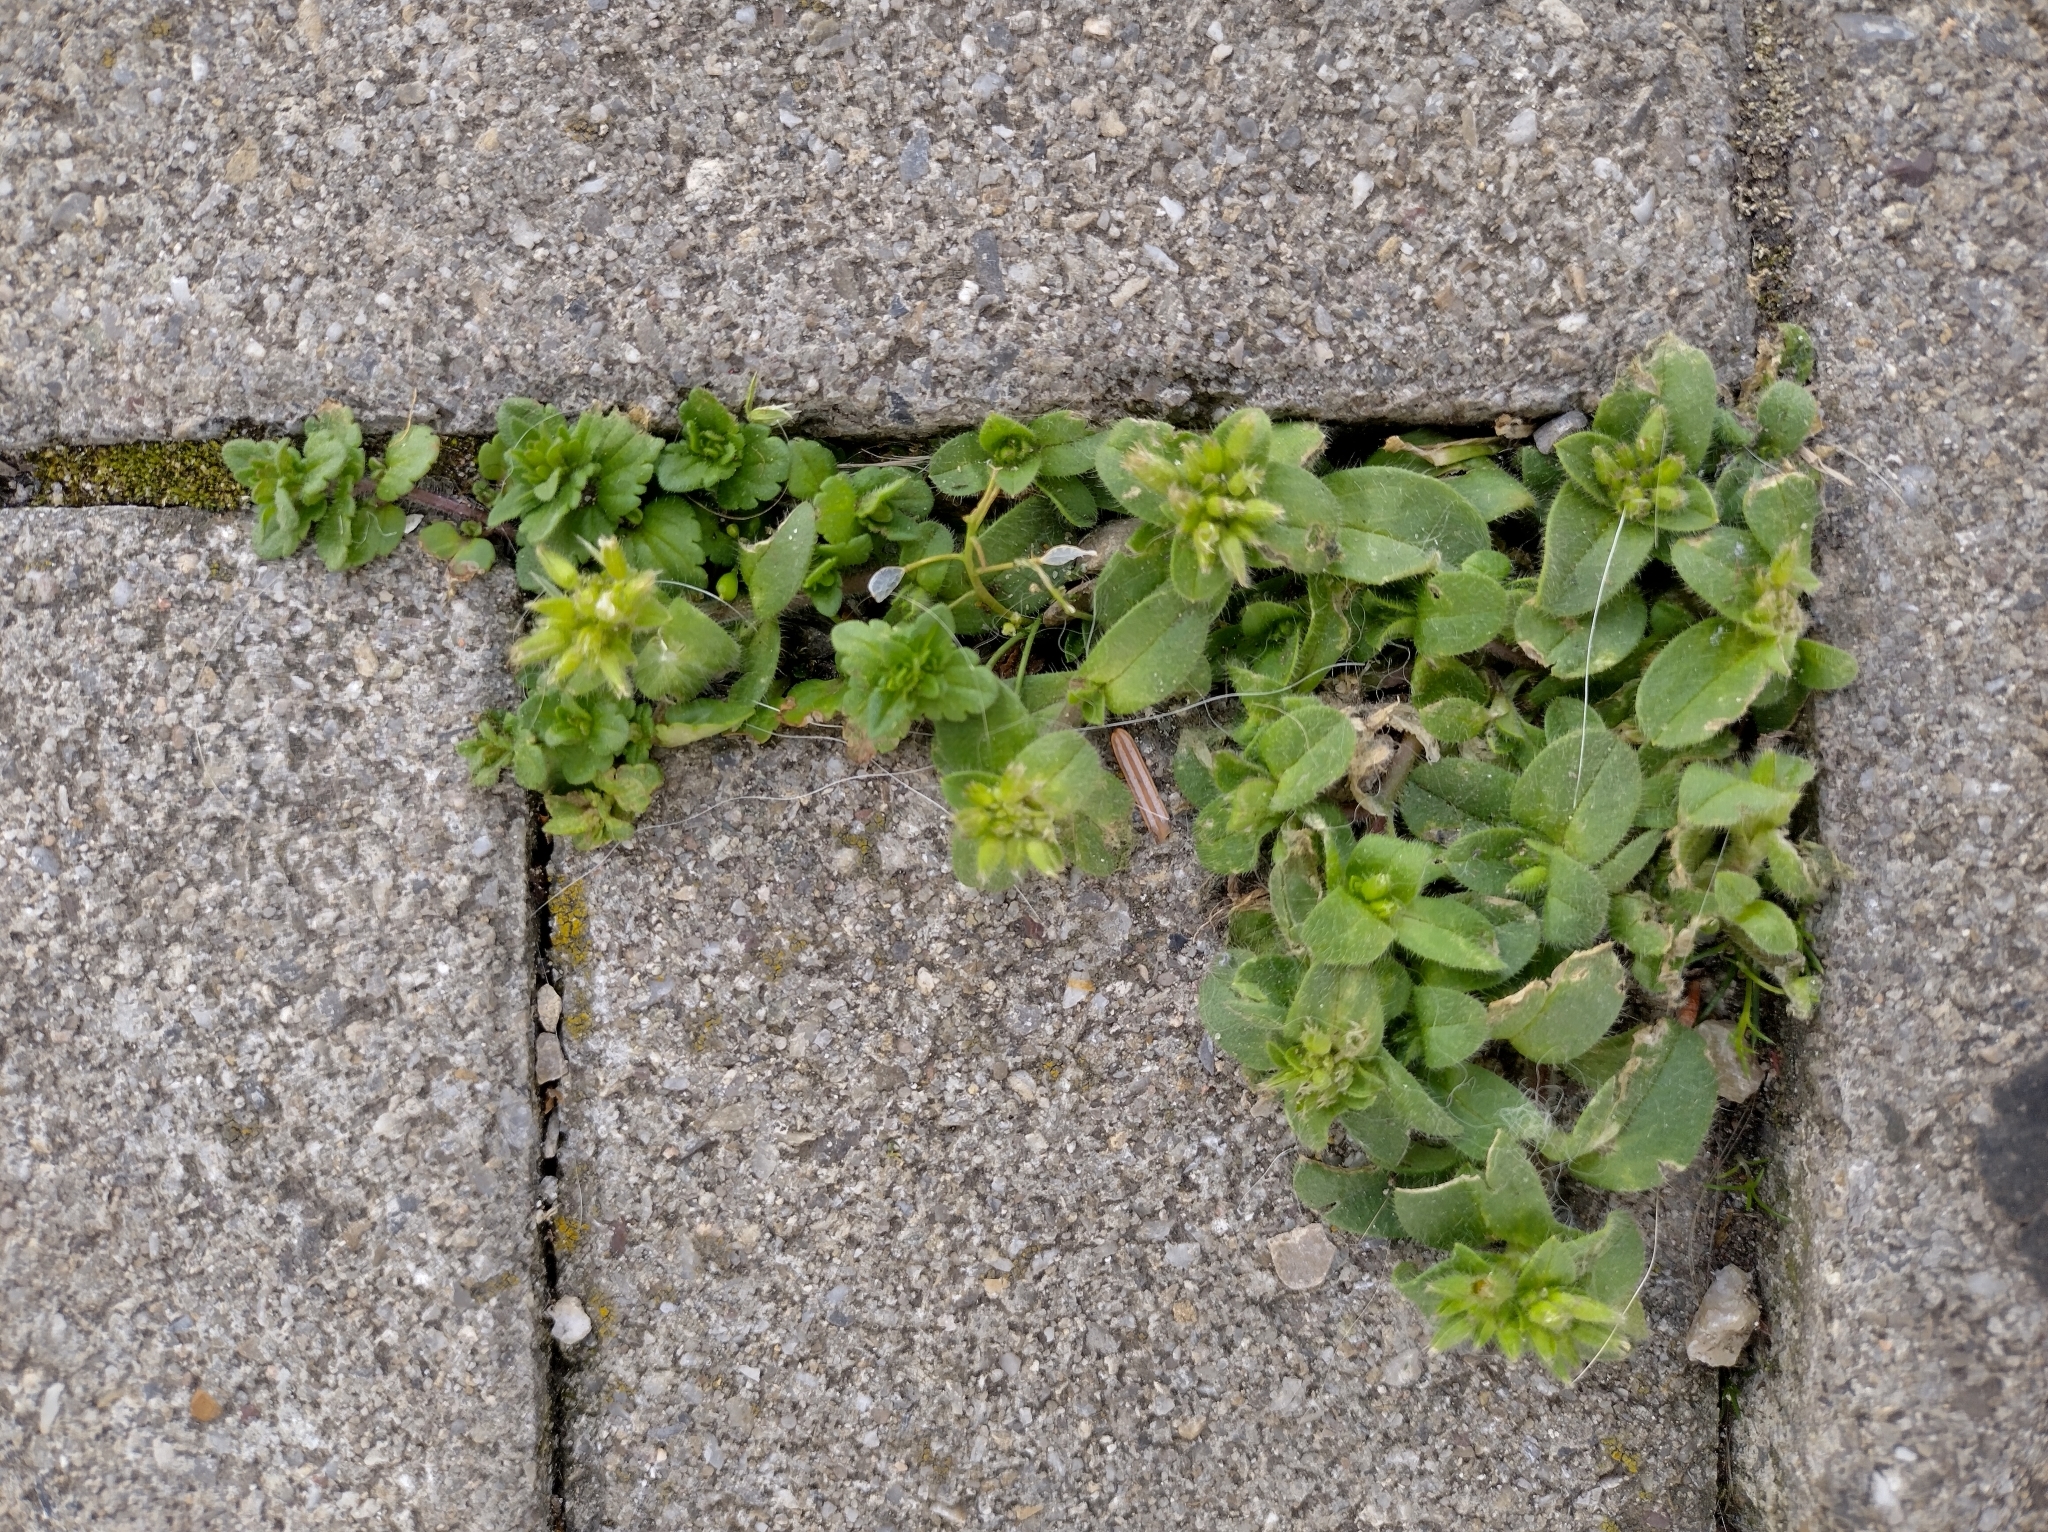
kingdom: Plantae
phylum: Tracheophyta
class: Magnoliopsida
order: Caryophyllales
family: Caryophyllaceae
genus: Cerastium
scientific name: Cerastium glomeratum
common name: Sticky chickweed
